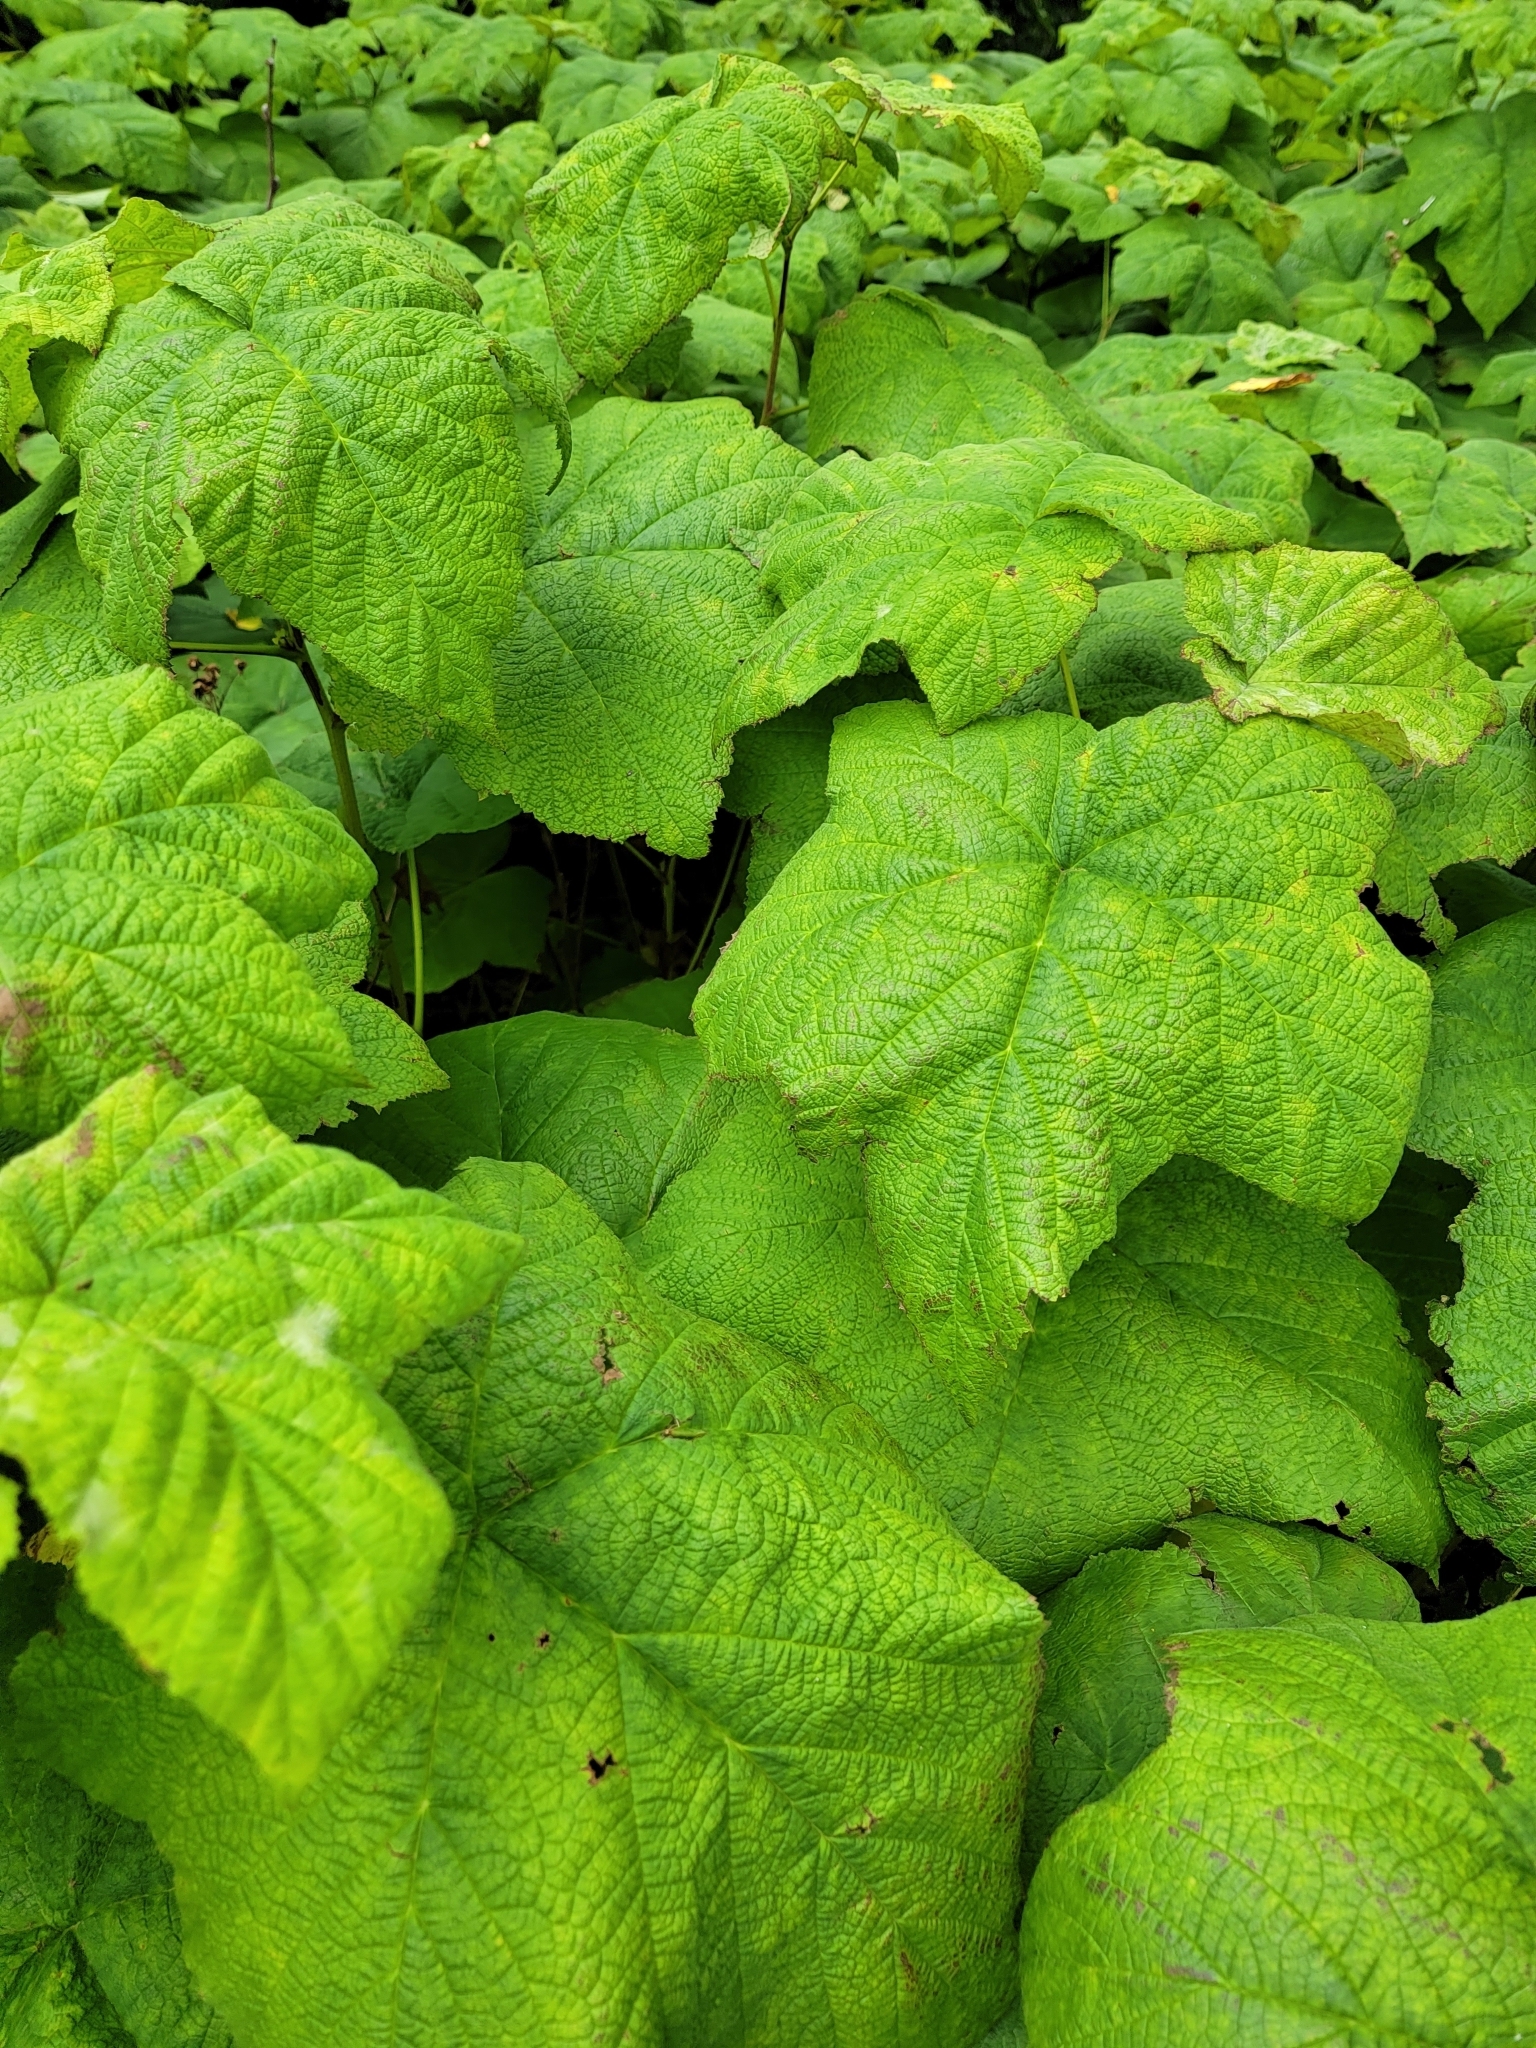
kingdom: Plantae
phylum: Tracheophyta
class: Magnoliopsida
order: Rosales
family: Rosaceae
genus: Rubus
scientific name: Rubus parviflorus
